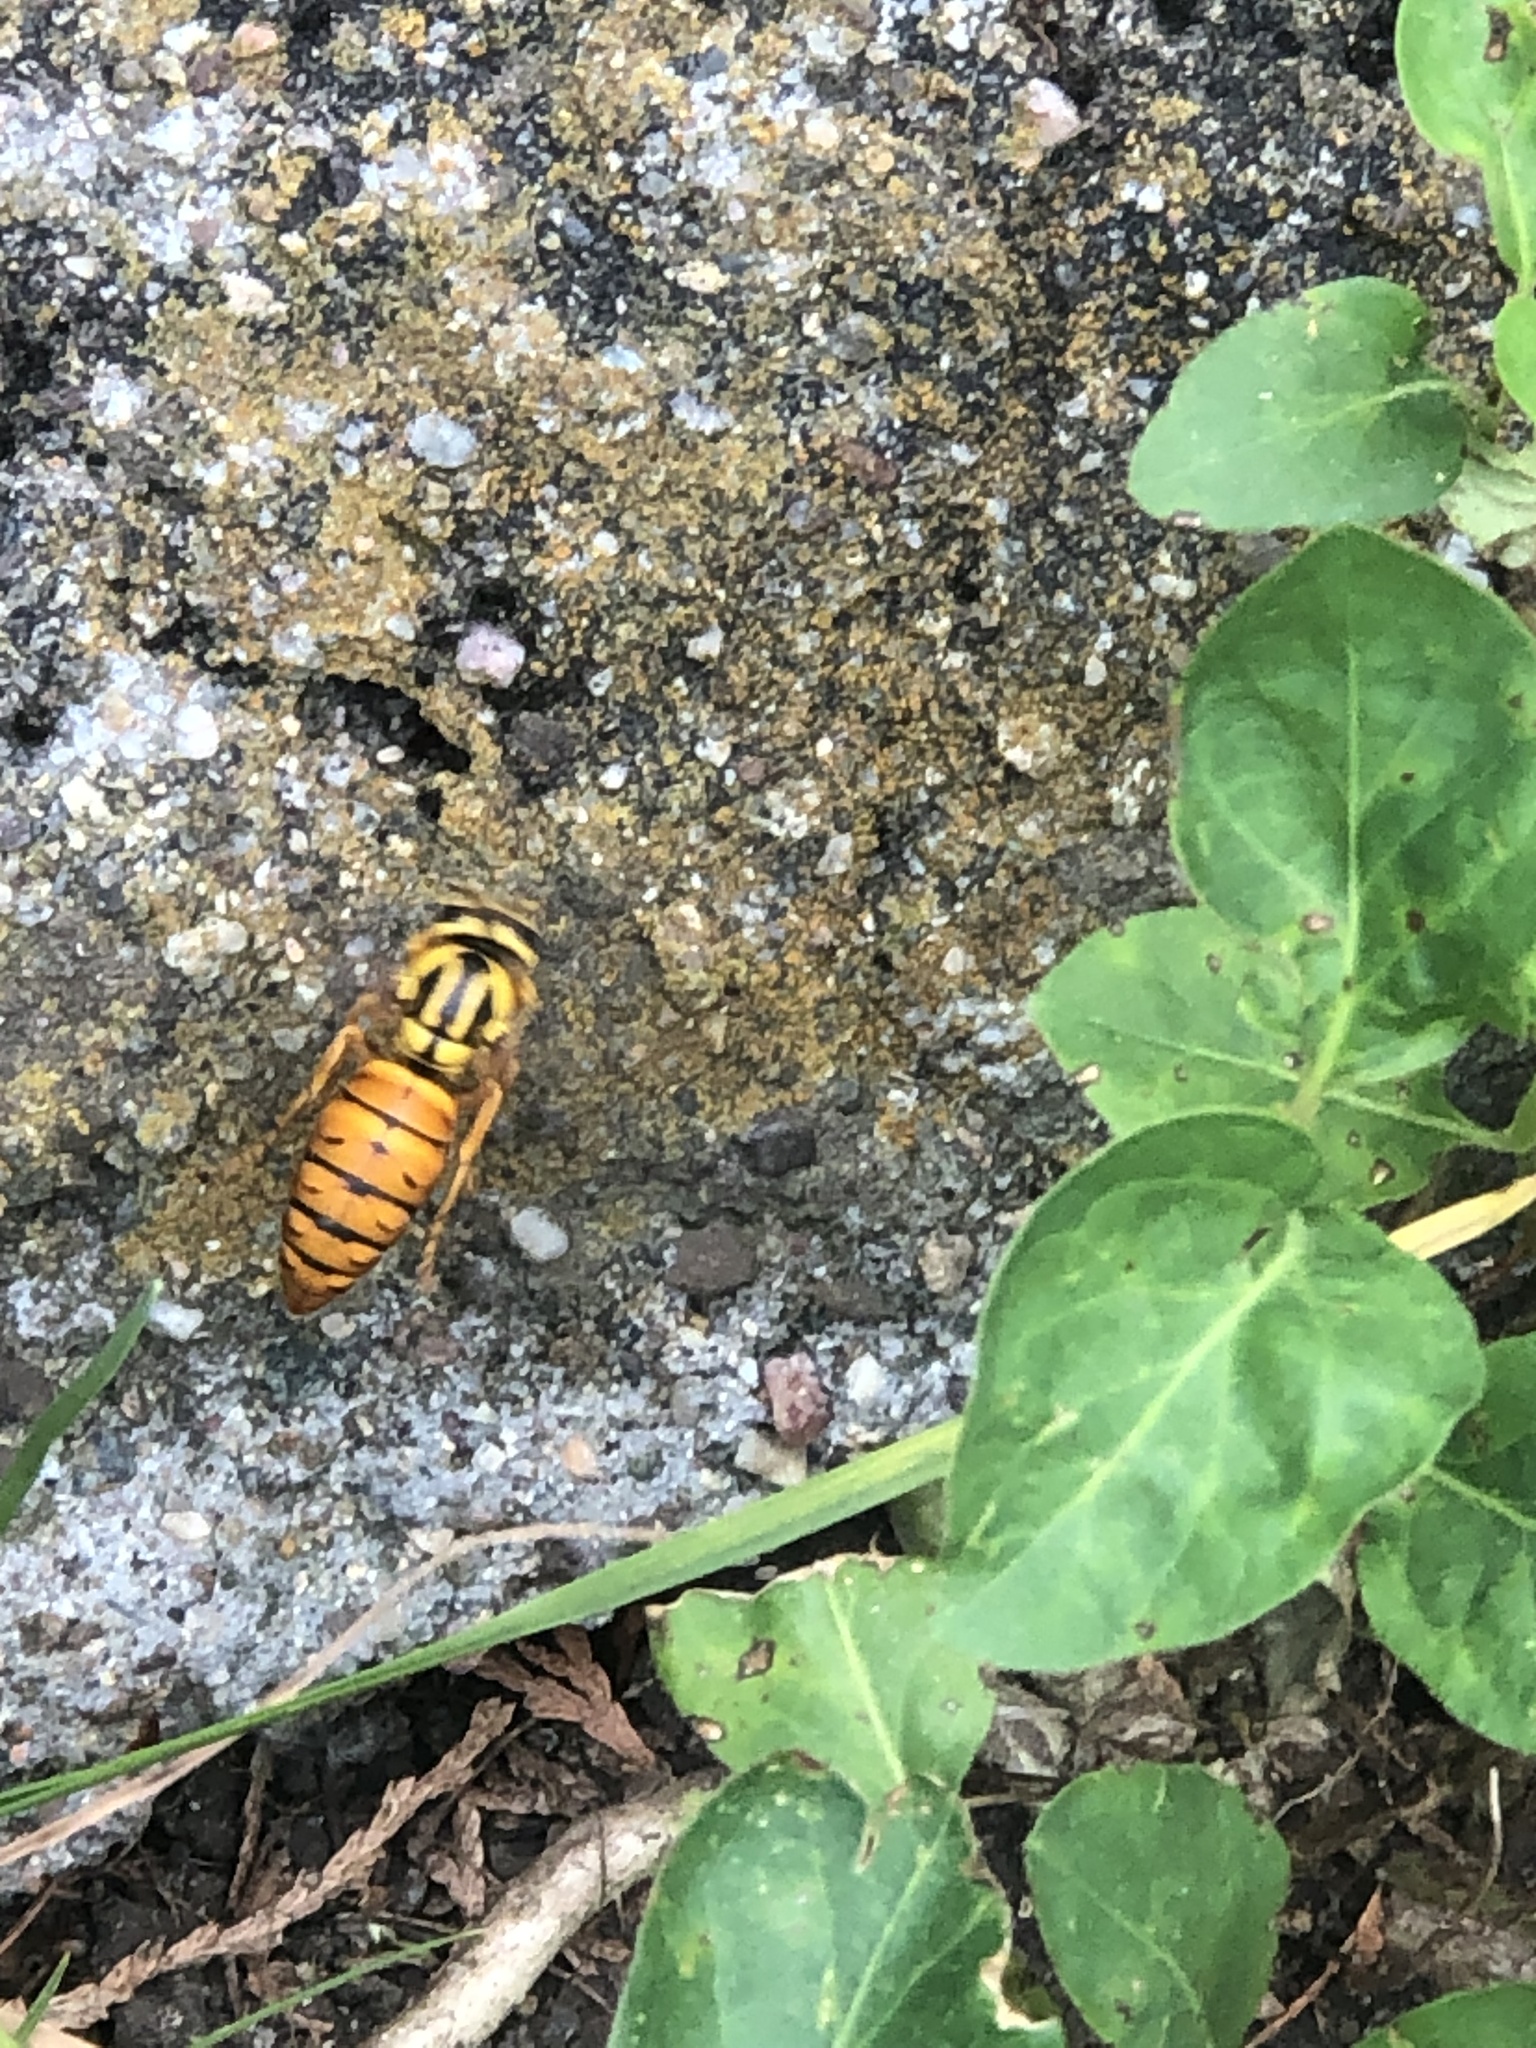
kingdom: Animalia
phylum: Arthropoda
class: Insecta
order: Hymenoptera
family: Vespidae
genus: Vespula
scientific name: Vespula squamosa
